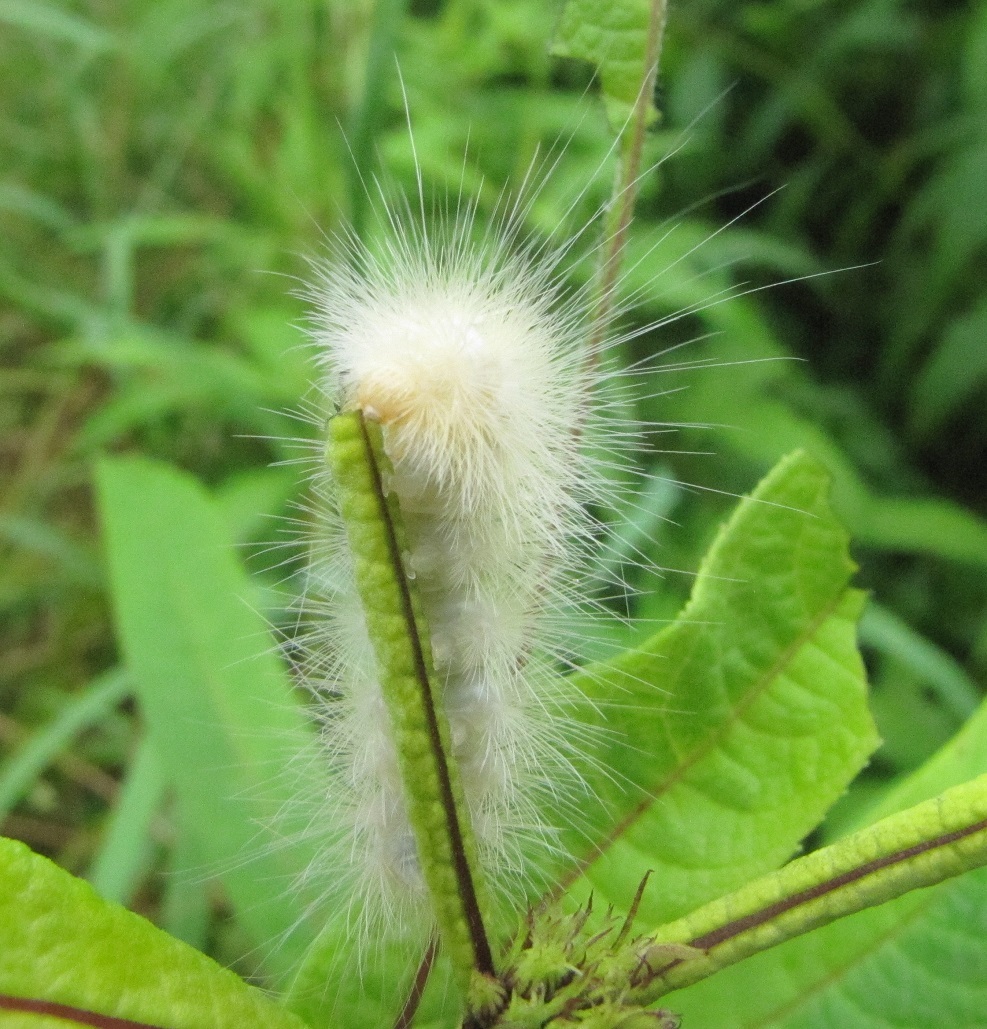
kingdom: Animalia
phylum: Arthropoda
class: Insecta
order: Lepidoptera
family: Erebidae
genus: Spilosoma
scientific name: Spilosoma virginica
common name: Virginia tiger moth
